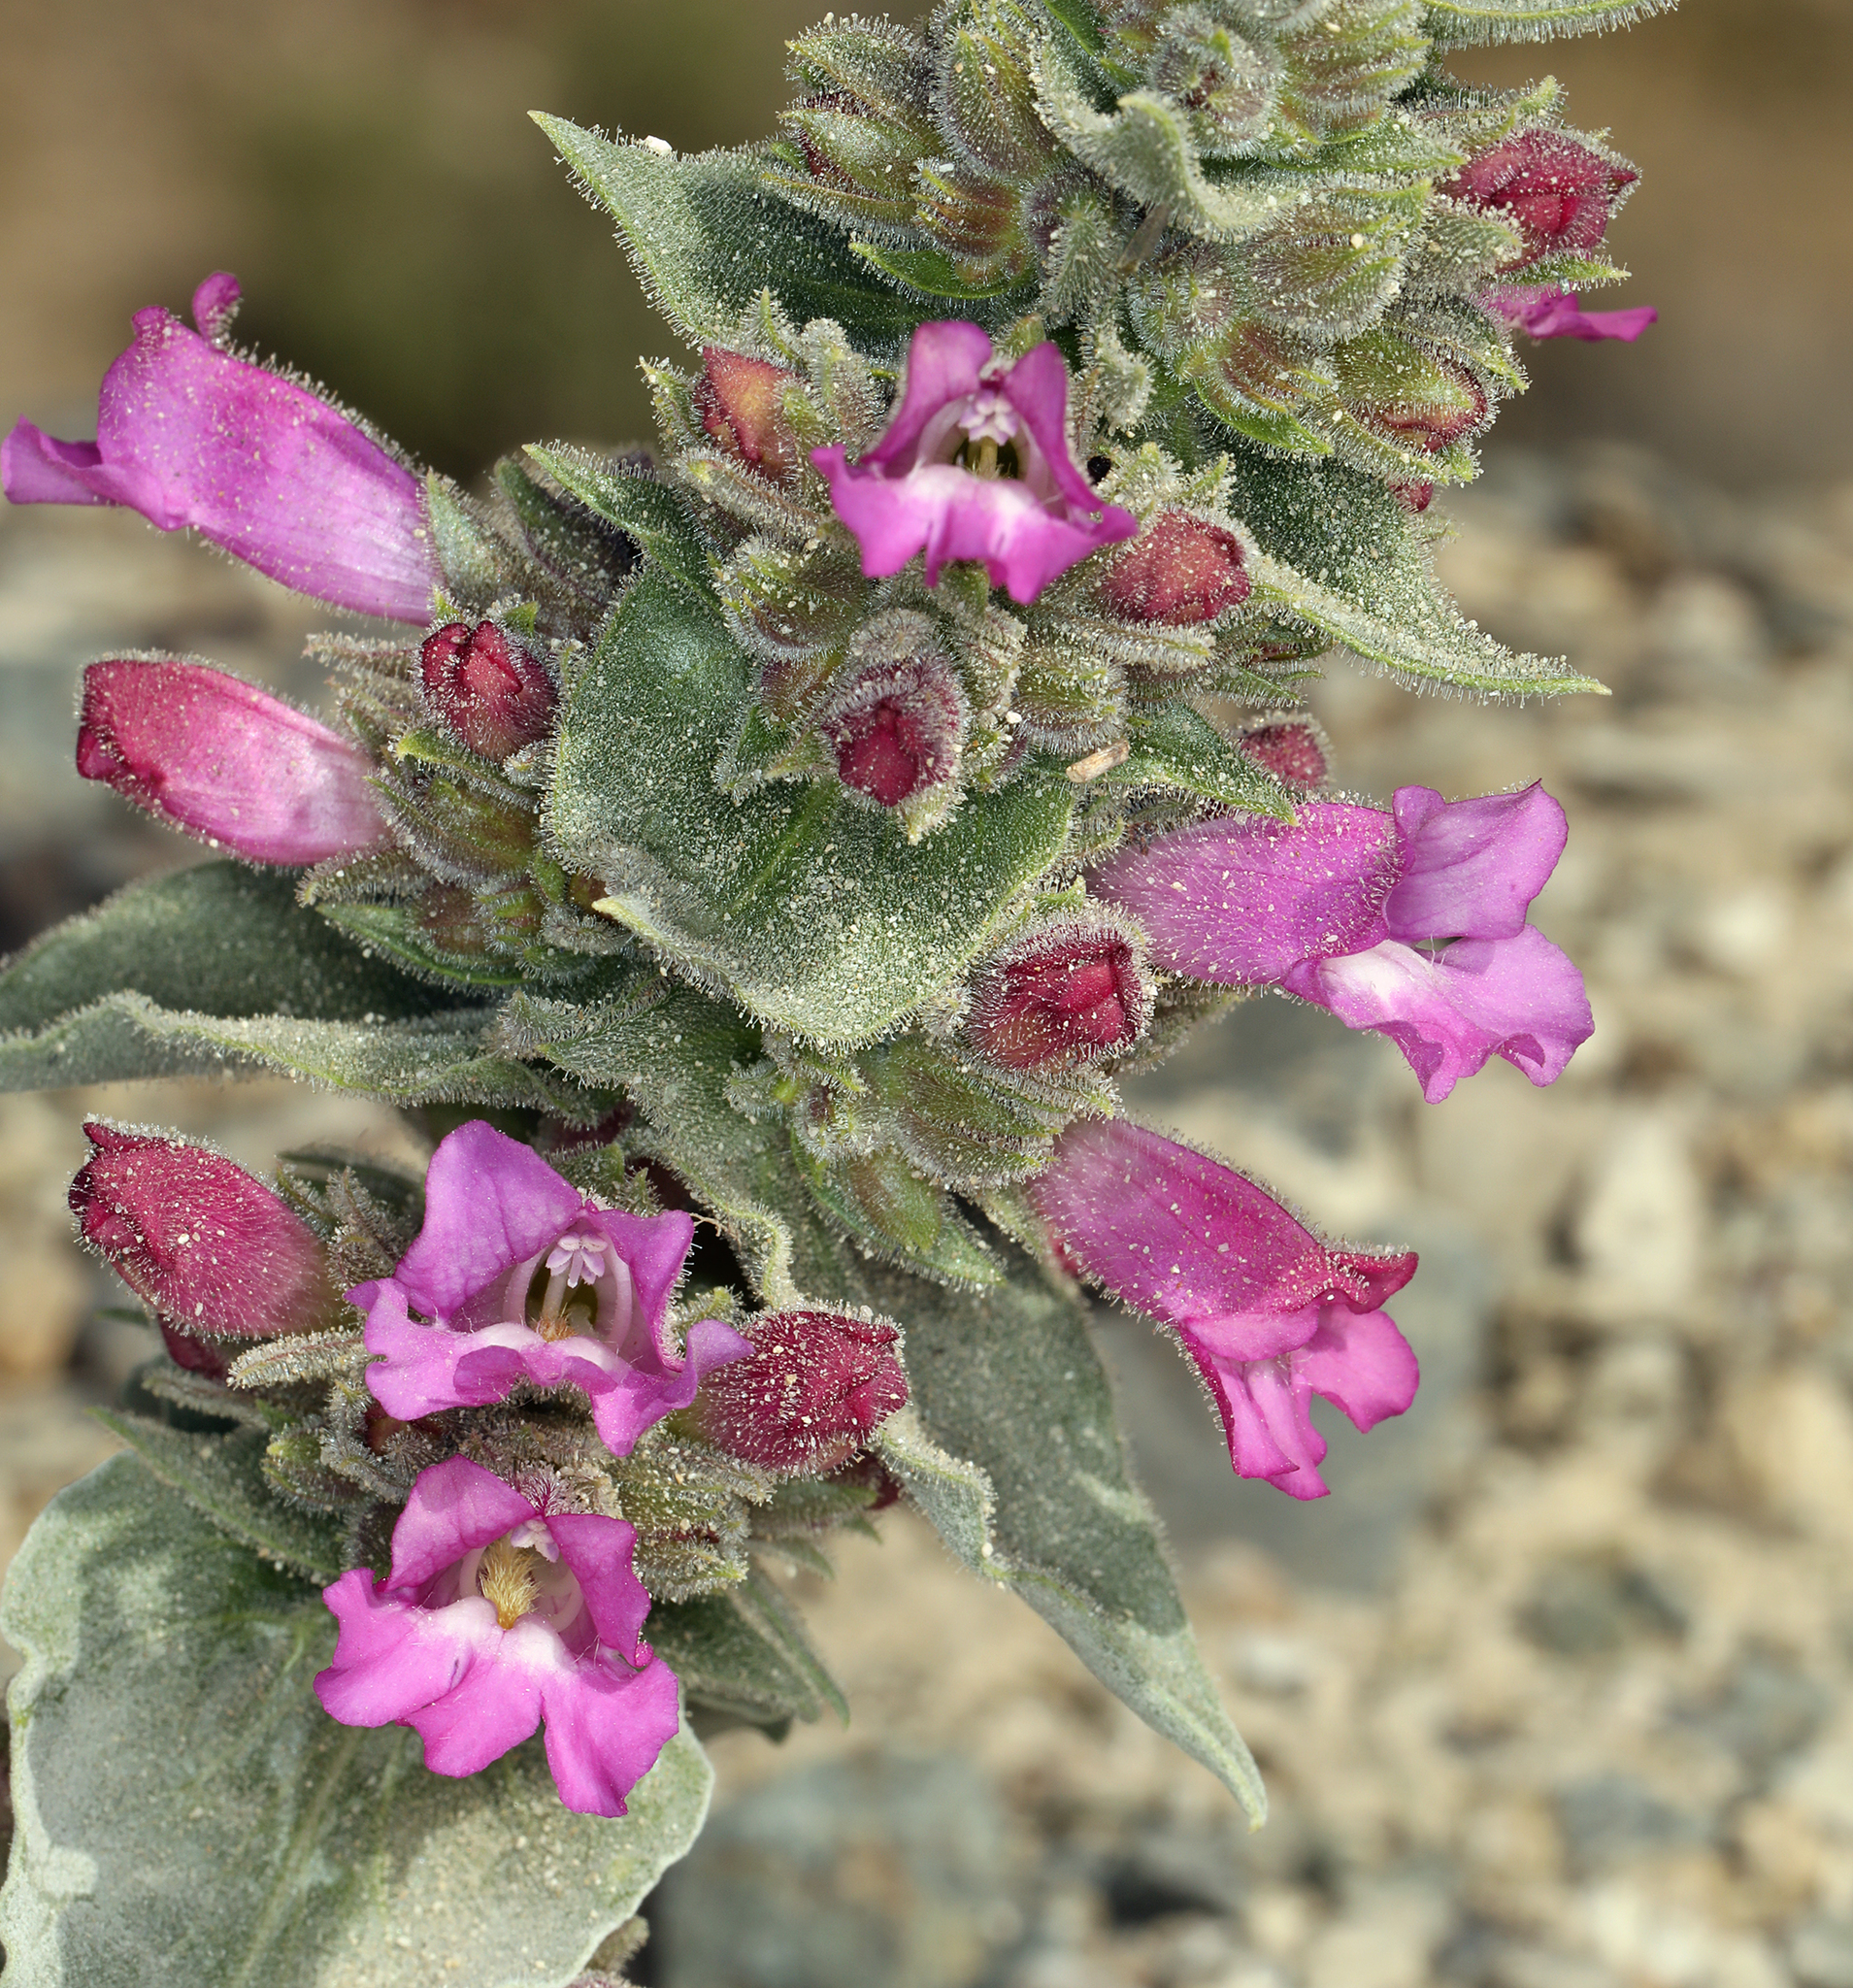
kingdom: Plantae
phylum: Tracheophyta
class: Magnoliopsida
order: Lamiales
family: Plantaginaceae
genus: Penstemon
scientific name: Penstemon monoensis
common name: Mono penstemon
